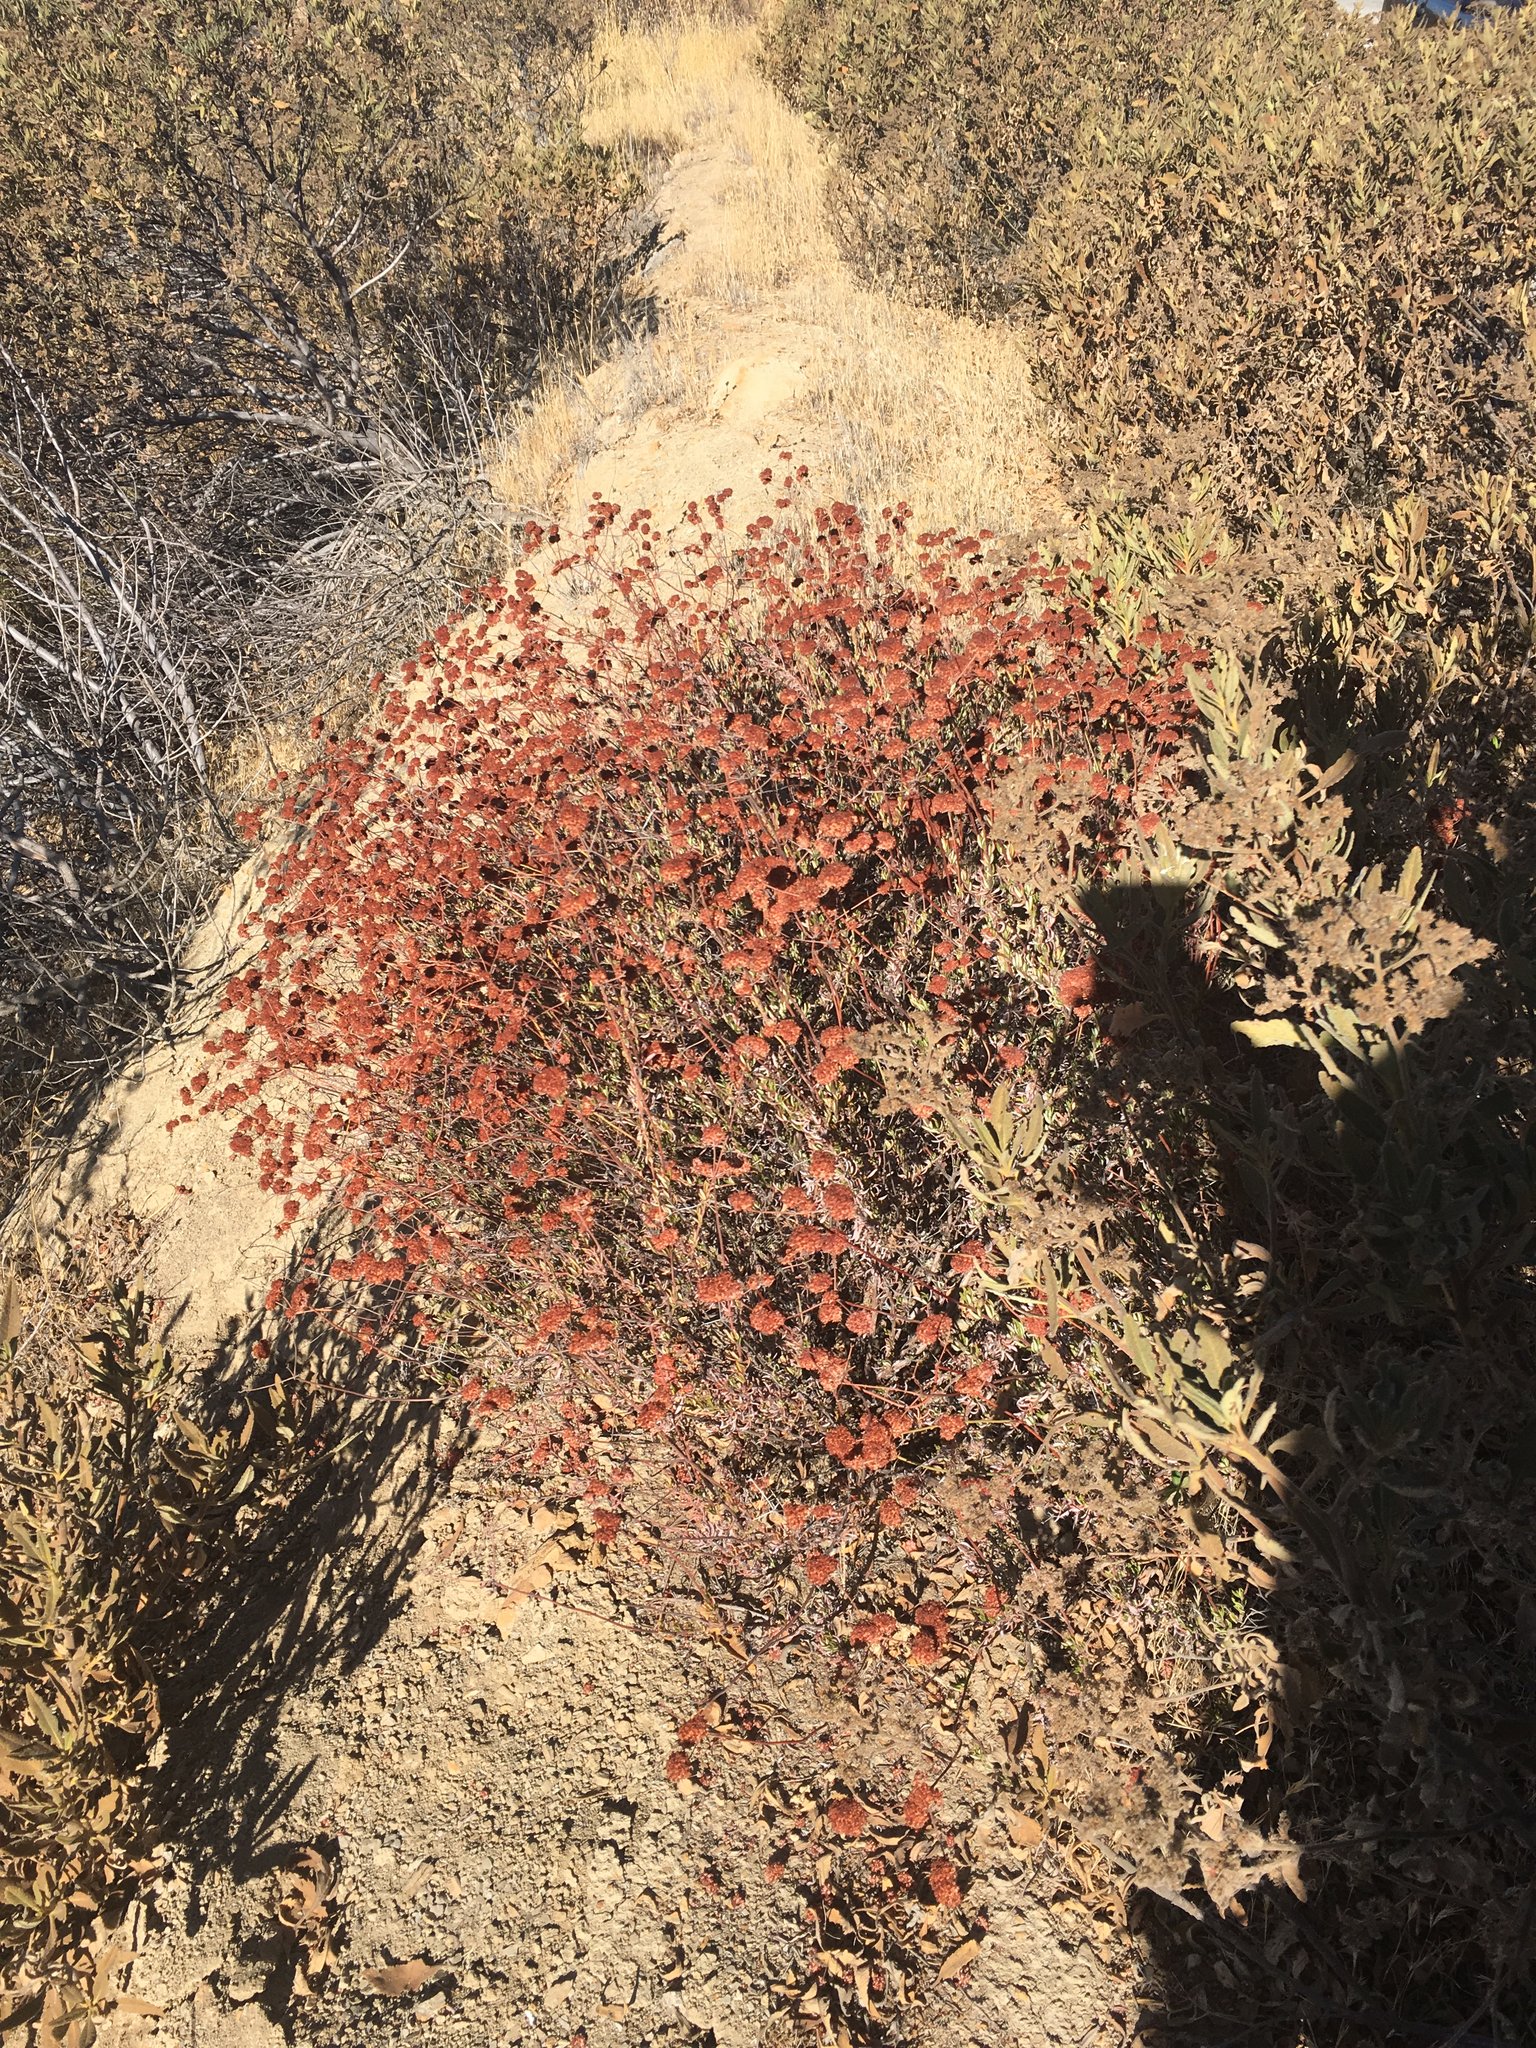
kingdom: Plantae
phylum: Tracheophyta
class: Magnoliopsida
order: Caryophyllales
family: Polygonaceae
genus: Eriogonum
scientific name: Eriogonum fasciculatum
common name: California wild buckwheat
